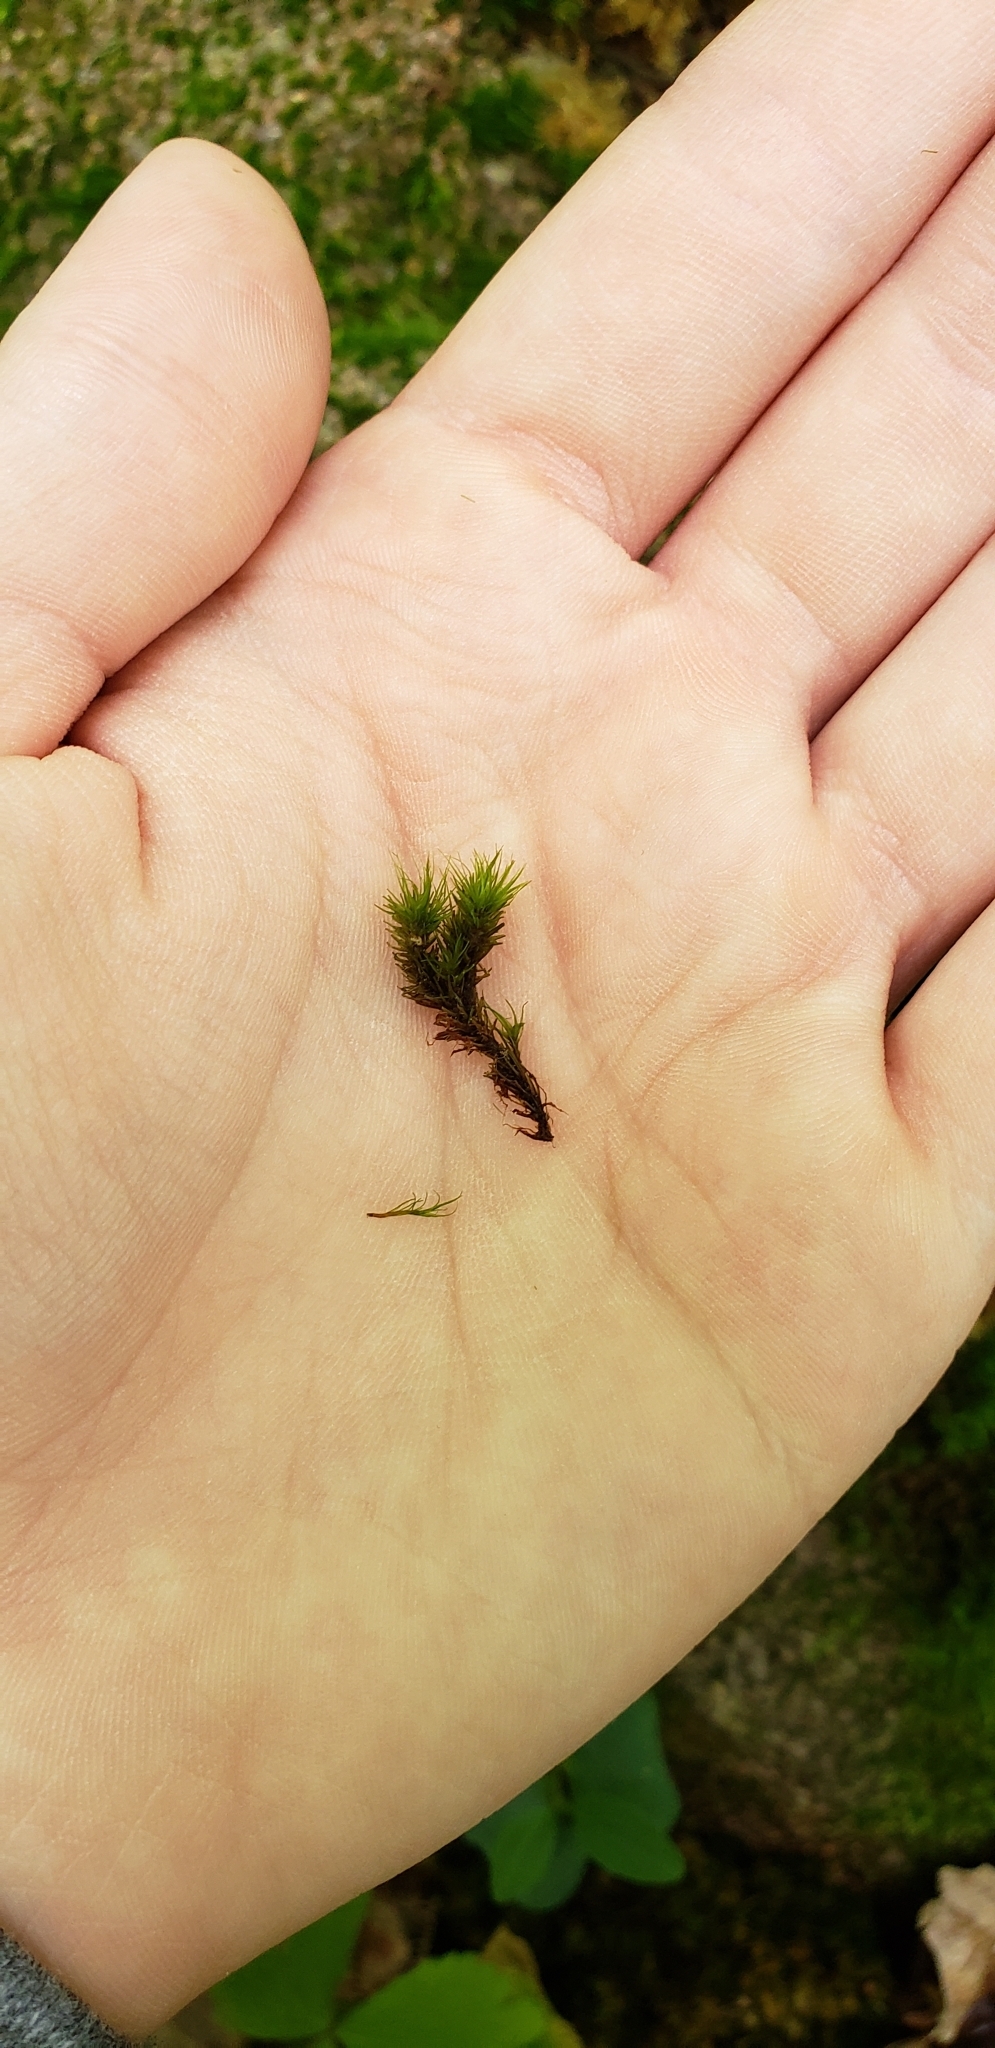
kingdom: Plantae
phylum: Bryophyta
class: Bryopsida
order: Dicranales
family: Dicranaceae
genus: Dicranum
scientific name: Dicranum viride
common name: Green broom moss
